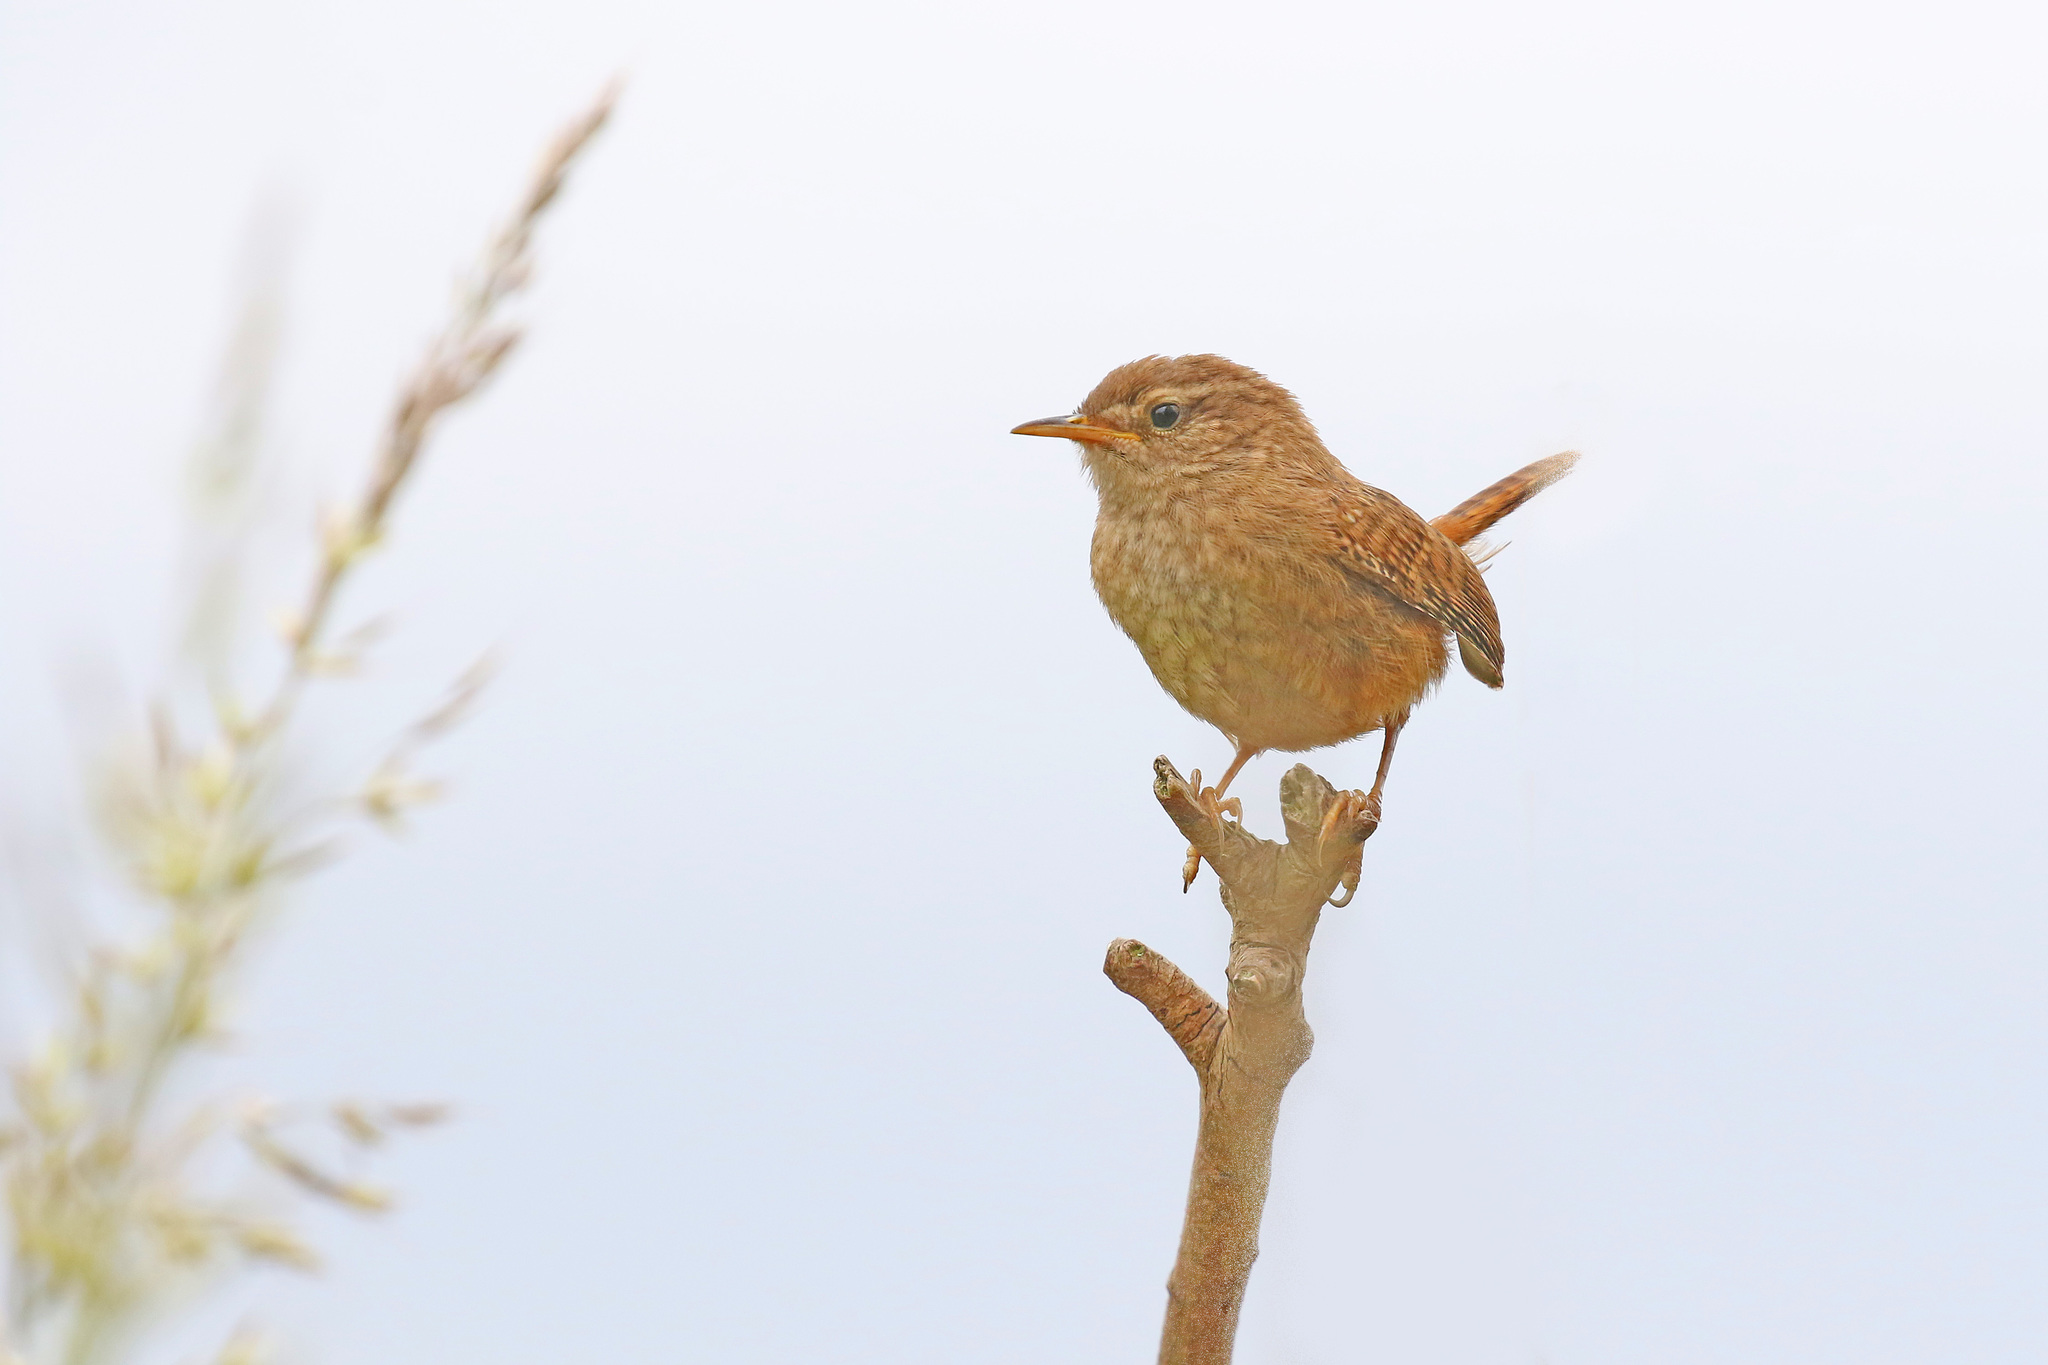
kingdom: Animalia
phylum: Chordata
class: Aves
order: Passeriformes
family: Troglodytidae
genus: Troglodytes
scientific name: Troglodytes troglodytes
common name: Eurasian wren
